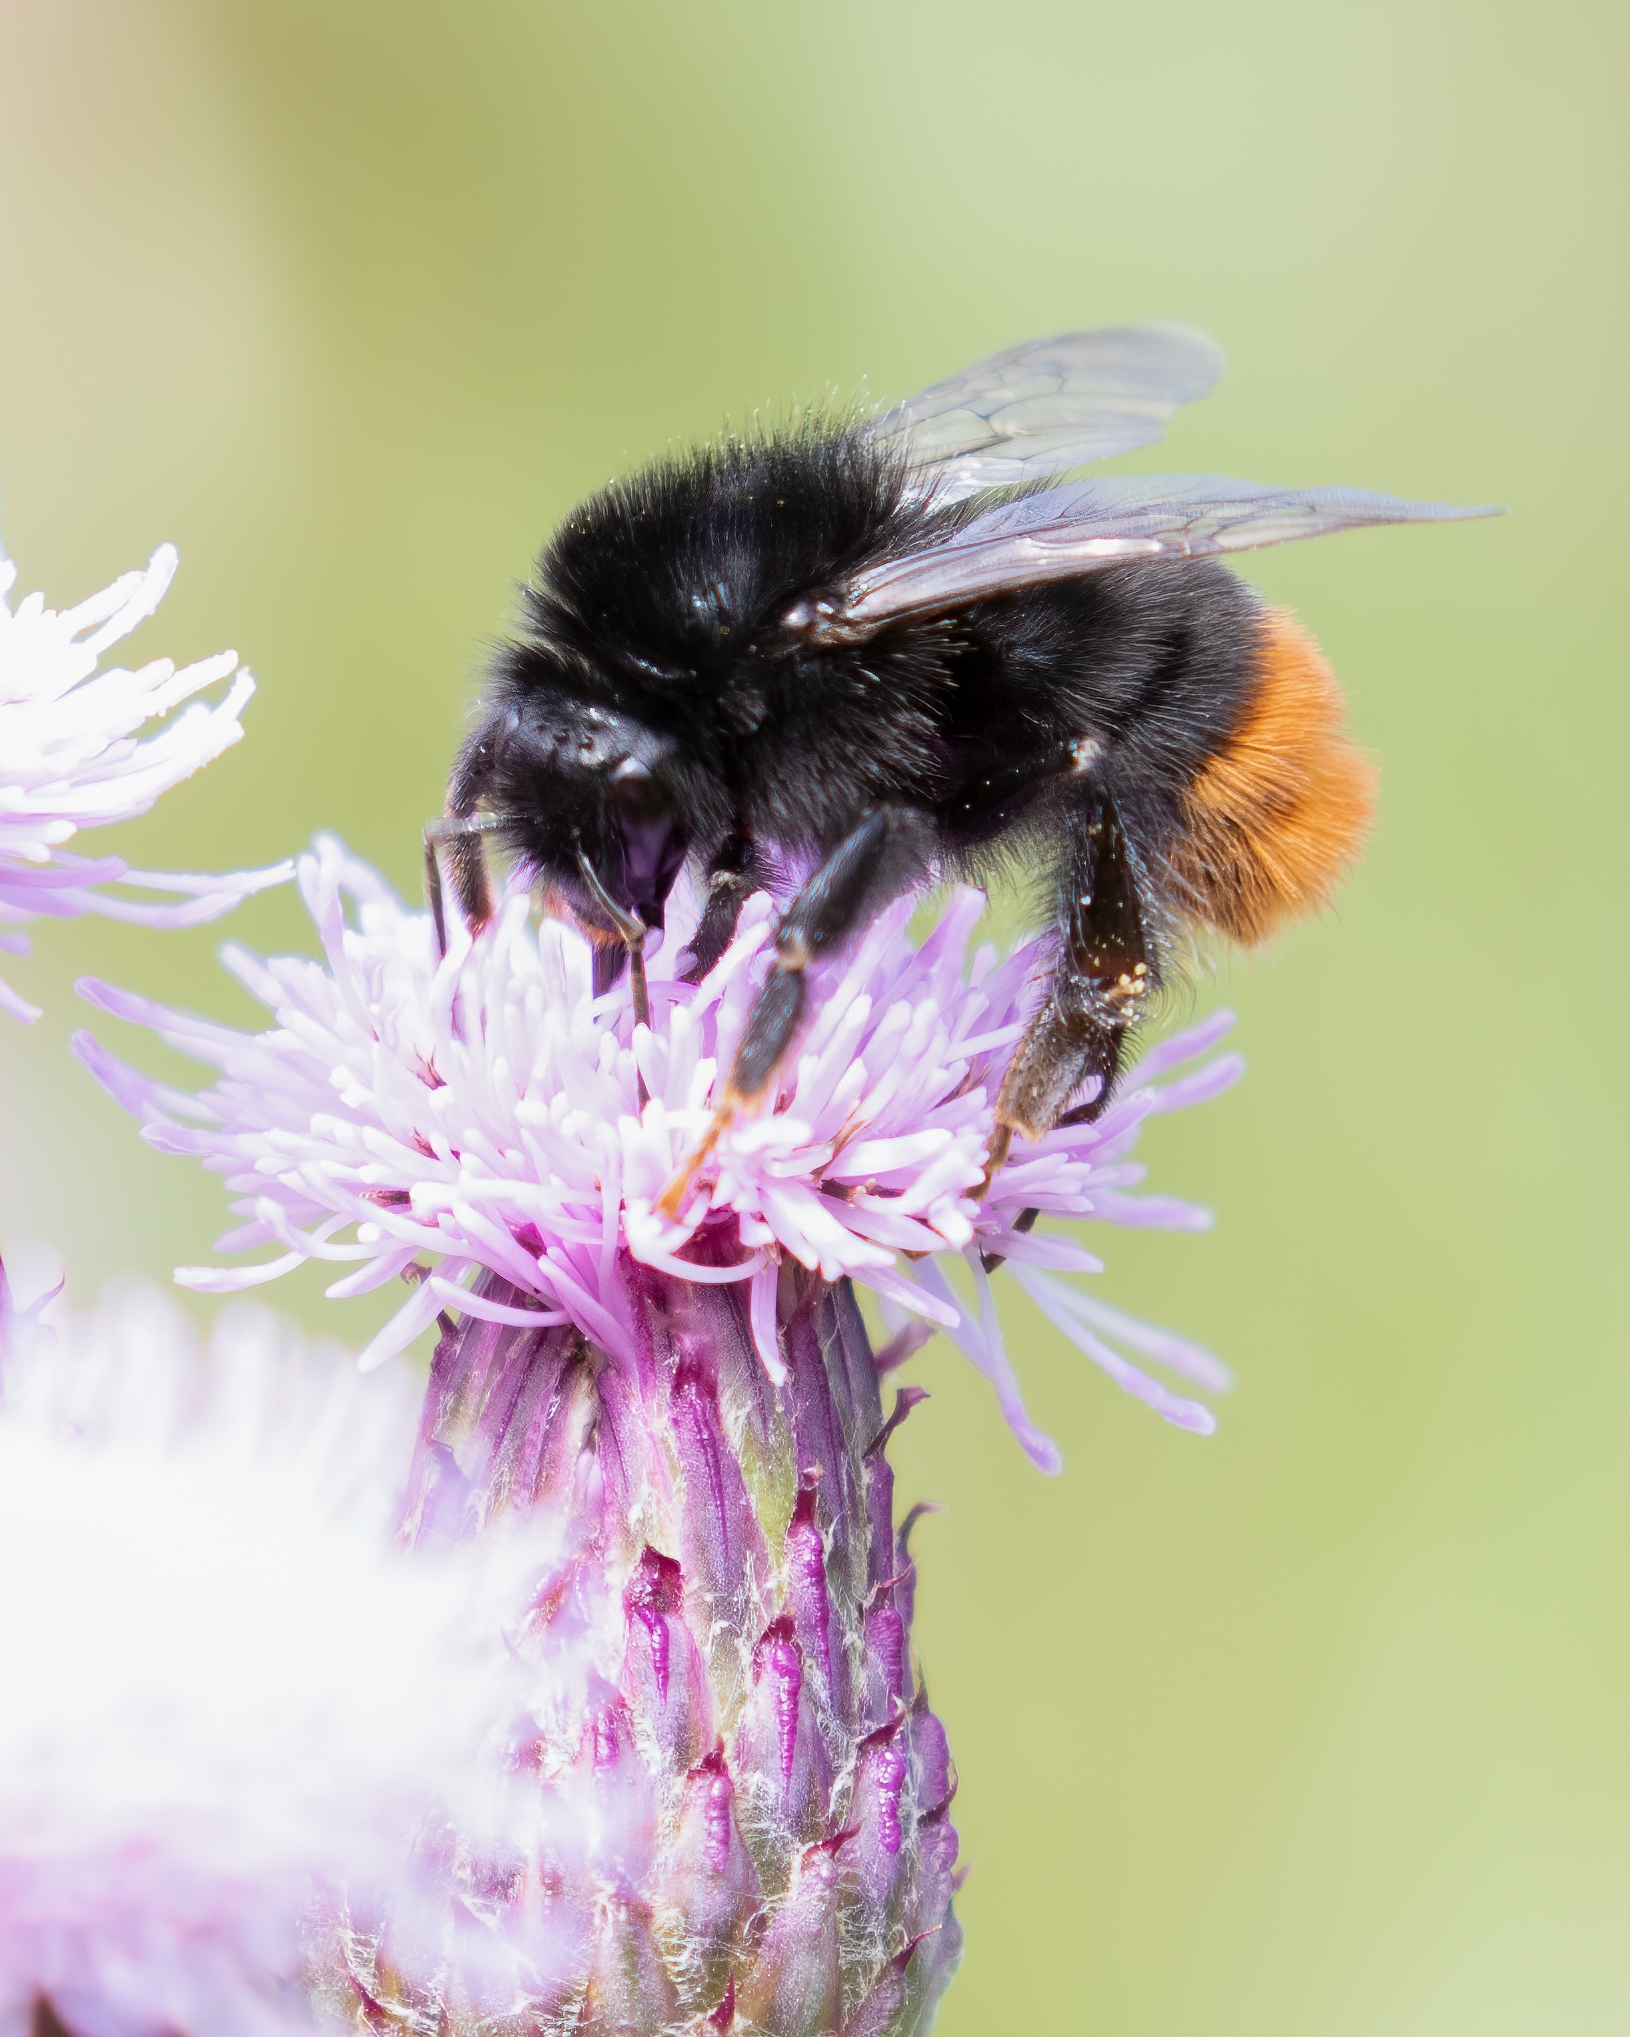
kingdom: Animalia
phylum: Arthropoda
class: Insecta
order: Hymenoptera
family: Apidae
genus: Bombus
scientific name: Bombus lapidarius
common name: Large red-tailed humble-bee
